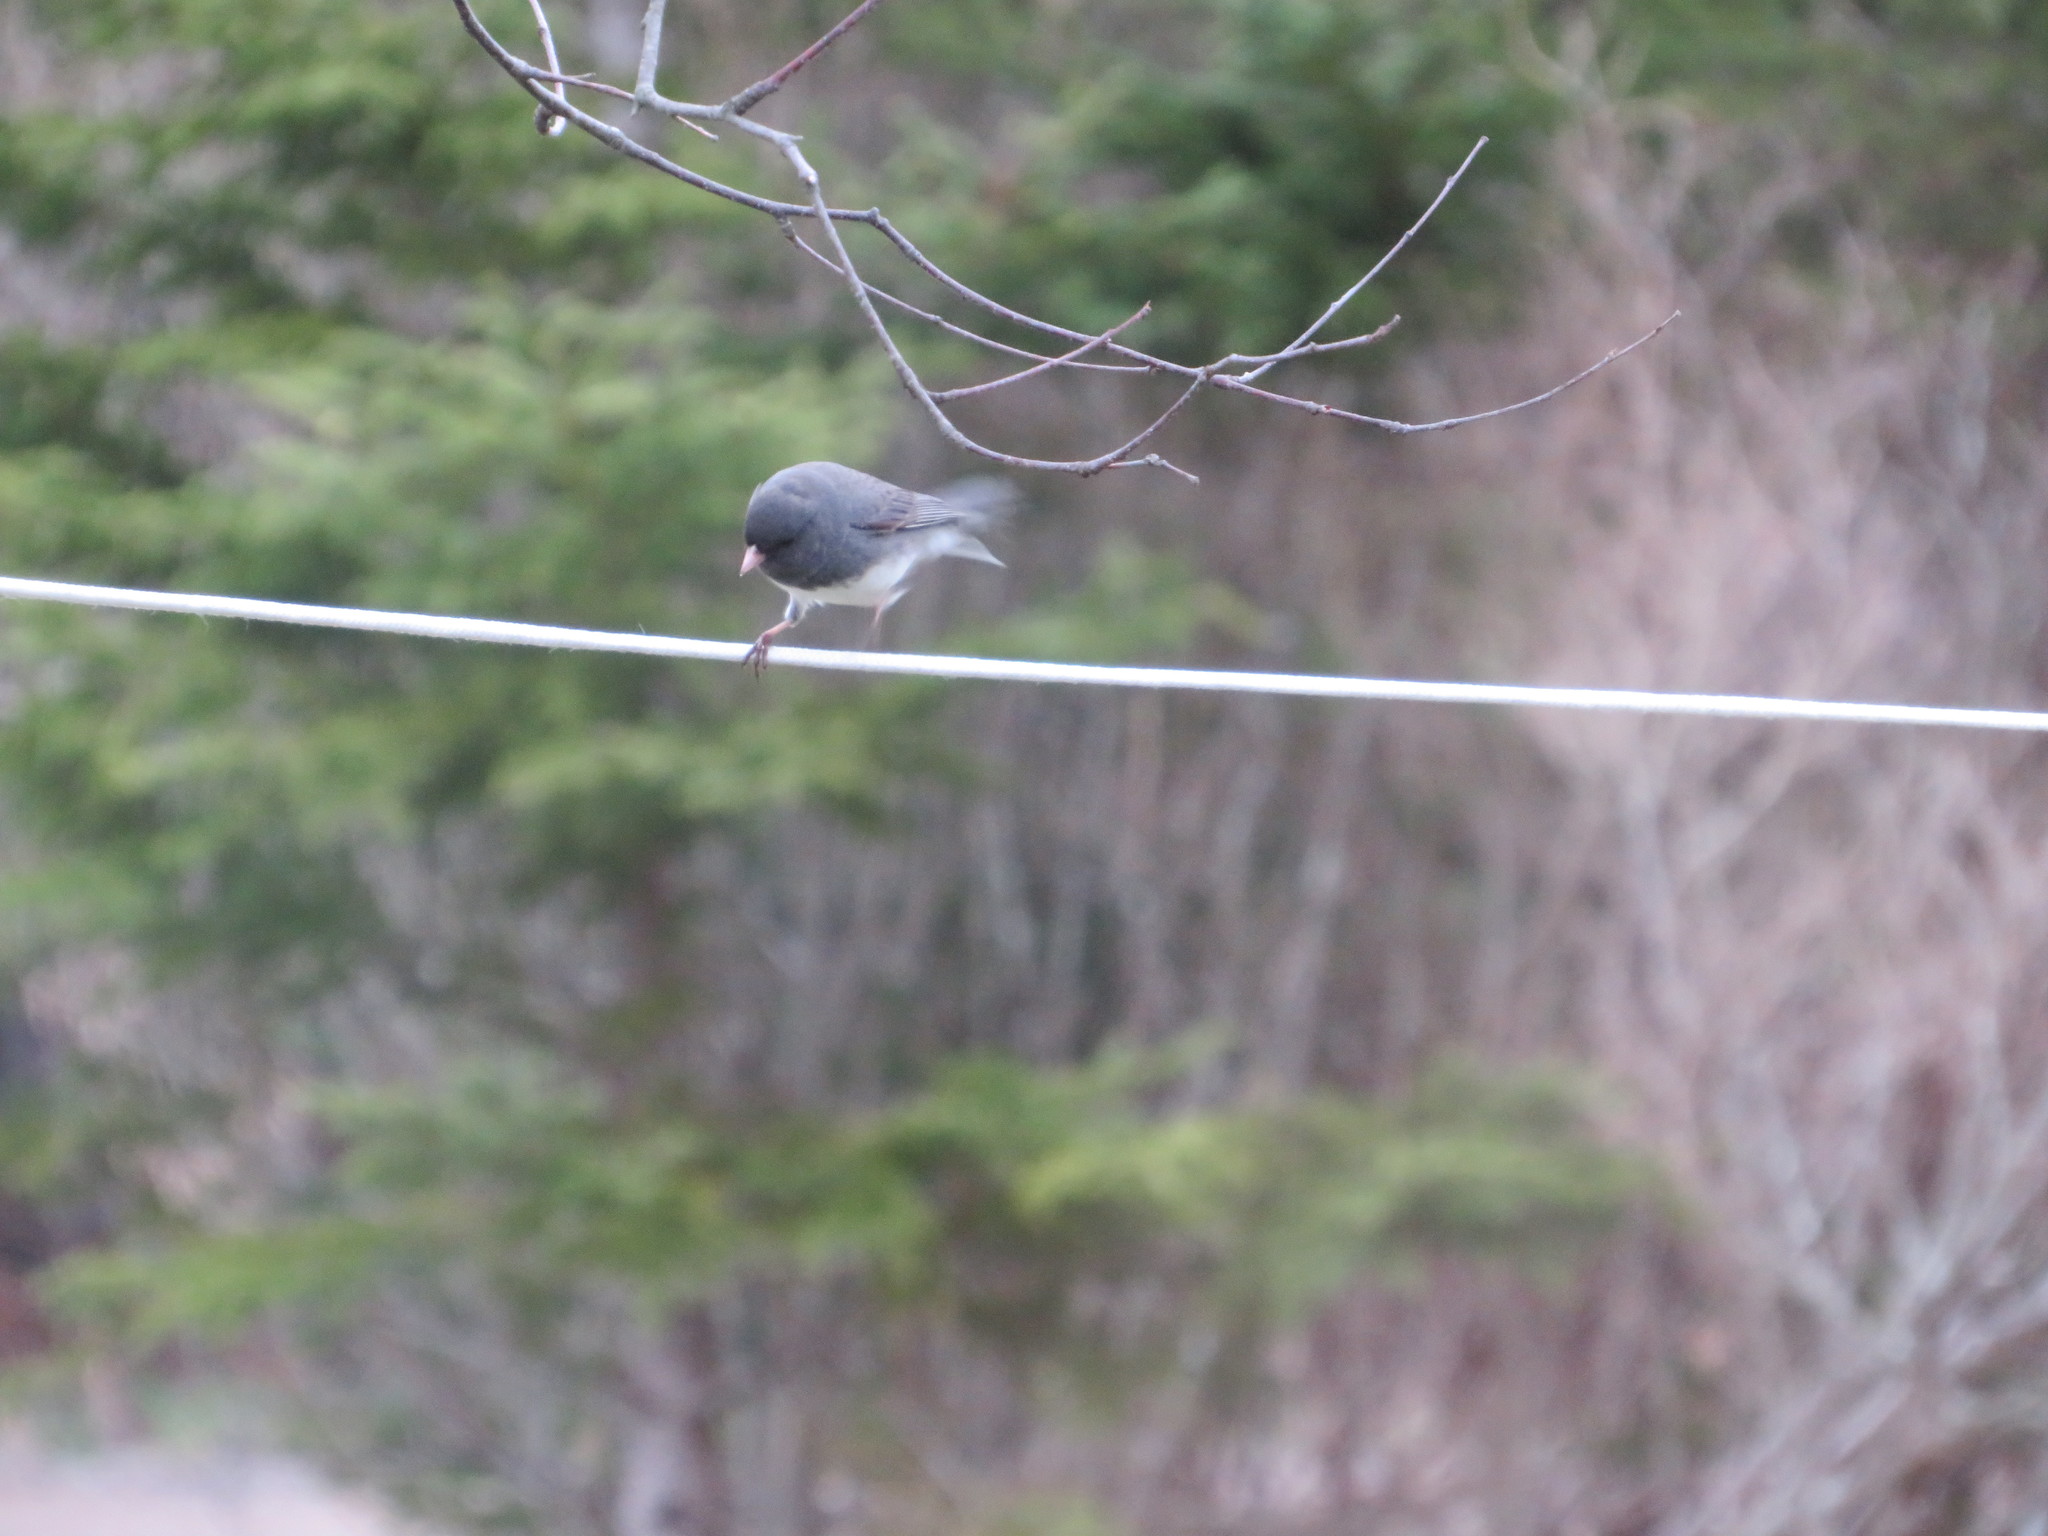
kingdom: Animalia
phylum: Chordata
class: Aves
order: Passeriformes
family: Passerellidae
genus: Junco
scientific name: Junco hyemalis
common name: Dark-eyed junco
